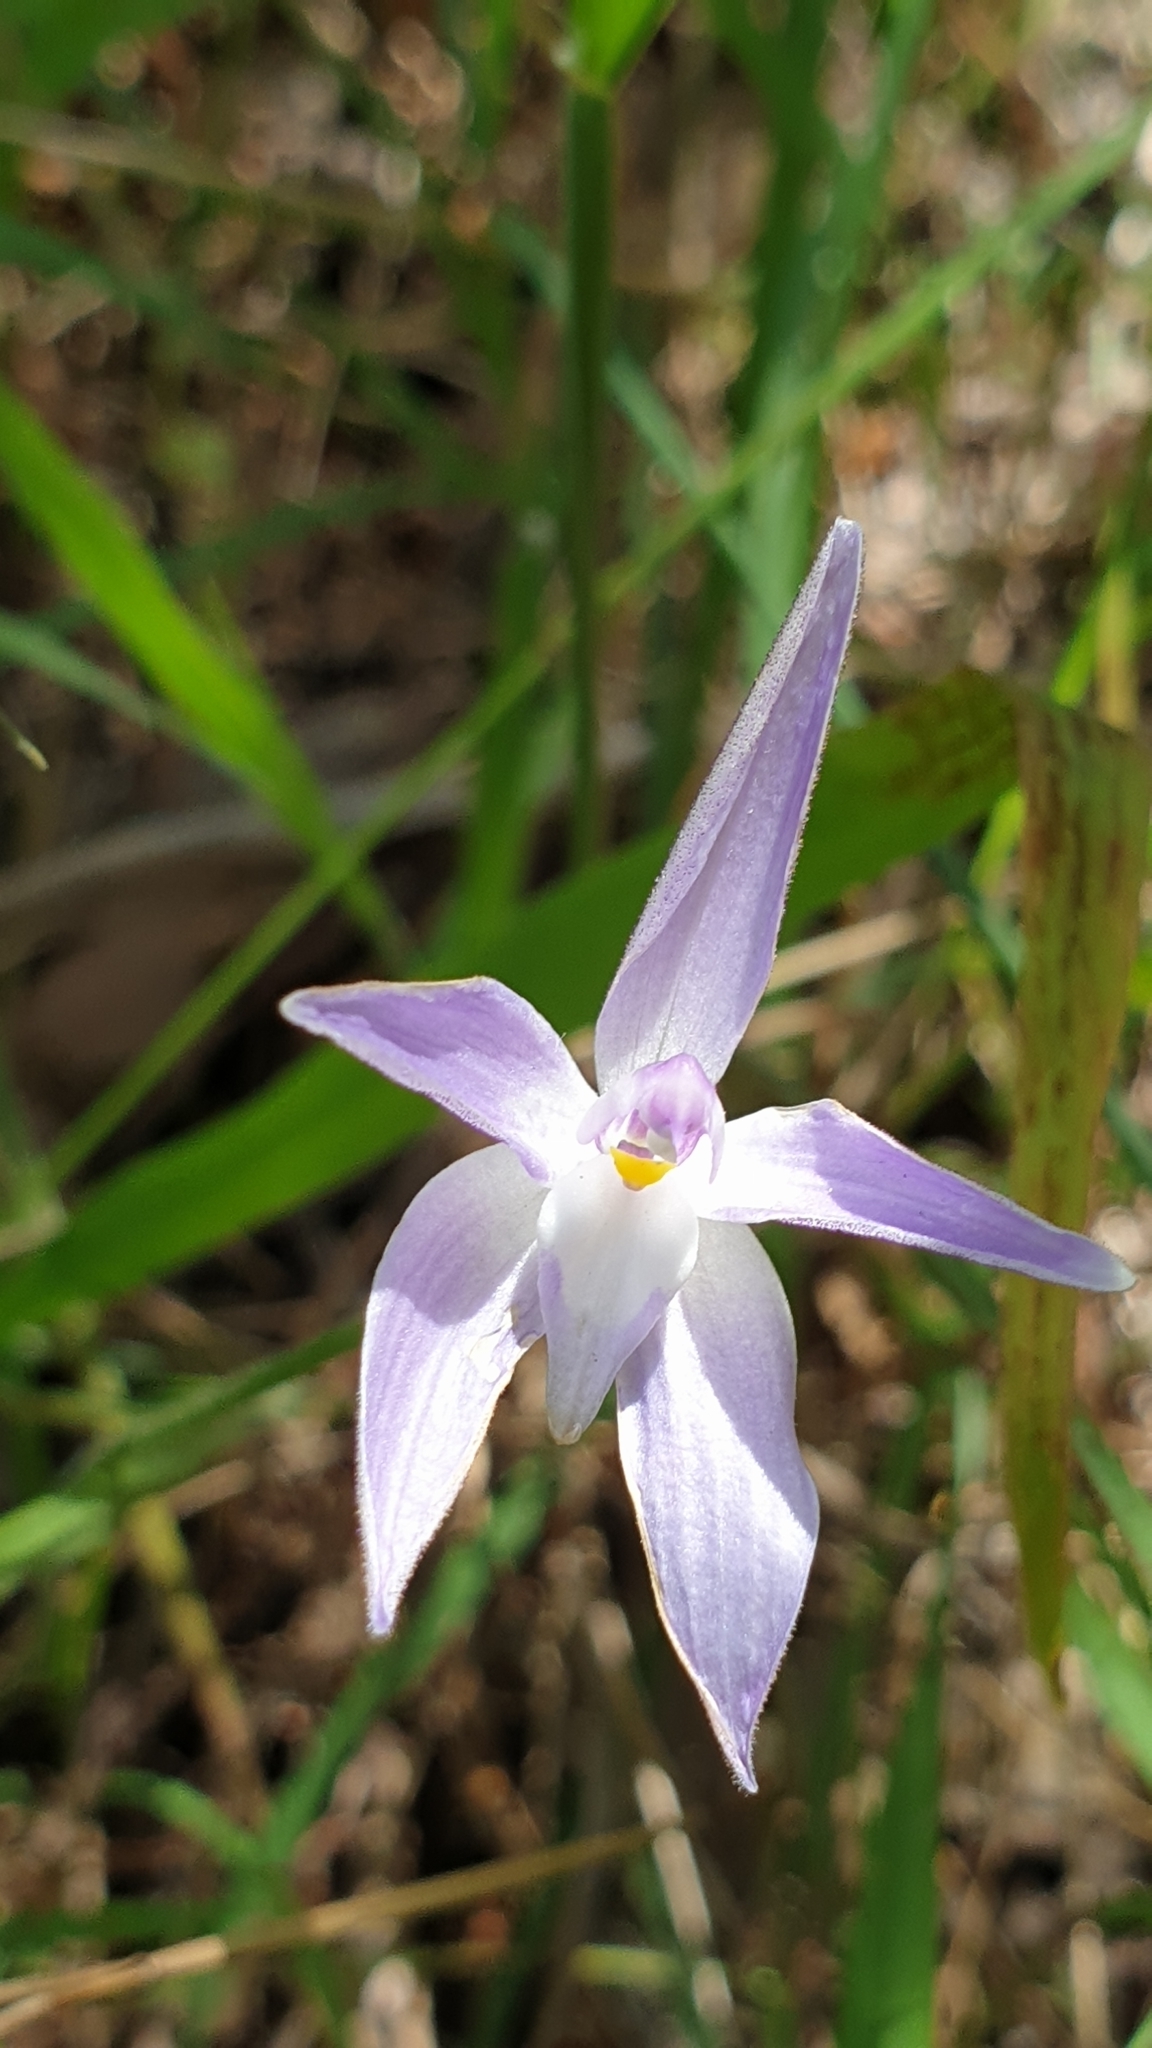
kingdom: Plantae
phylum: Tracheophyta
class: Liliopsida
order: Asparagales
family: Orchidaceae
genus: Caladenia
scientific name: Caladenia major
